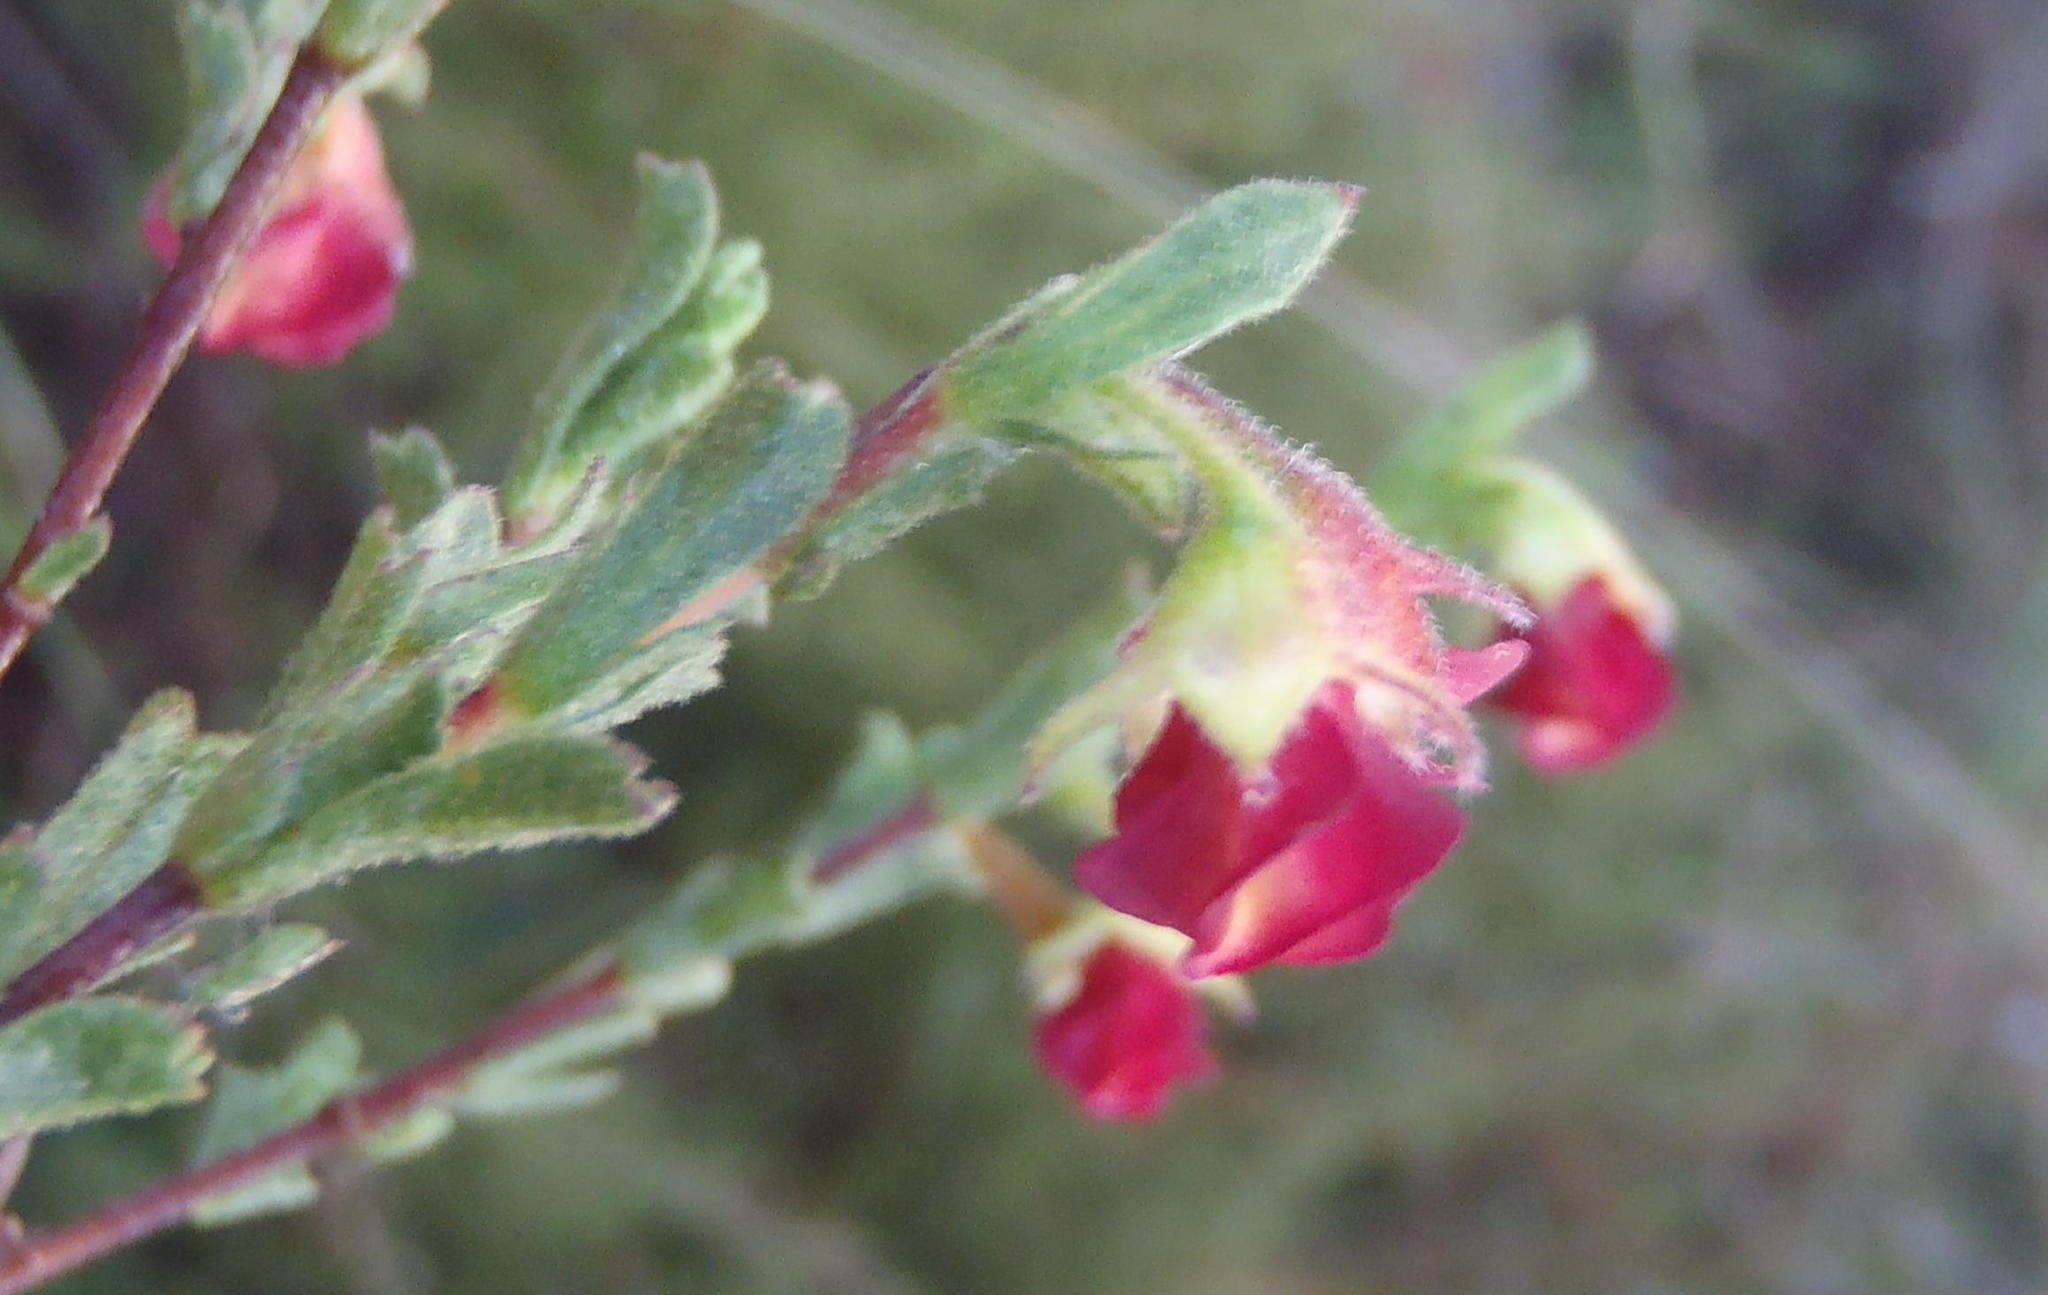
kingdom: Plantae
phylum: Tracheophyta
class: Magnoliopsida
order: Malvales
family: Malvaceae
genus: Hermannia
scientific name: Hermannia flammula
